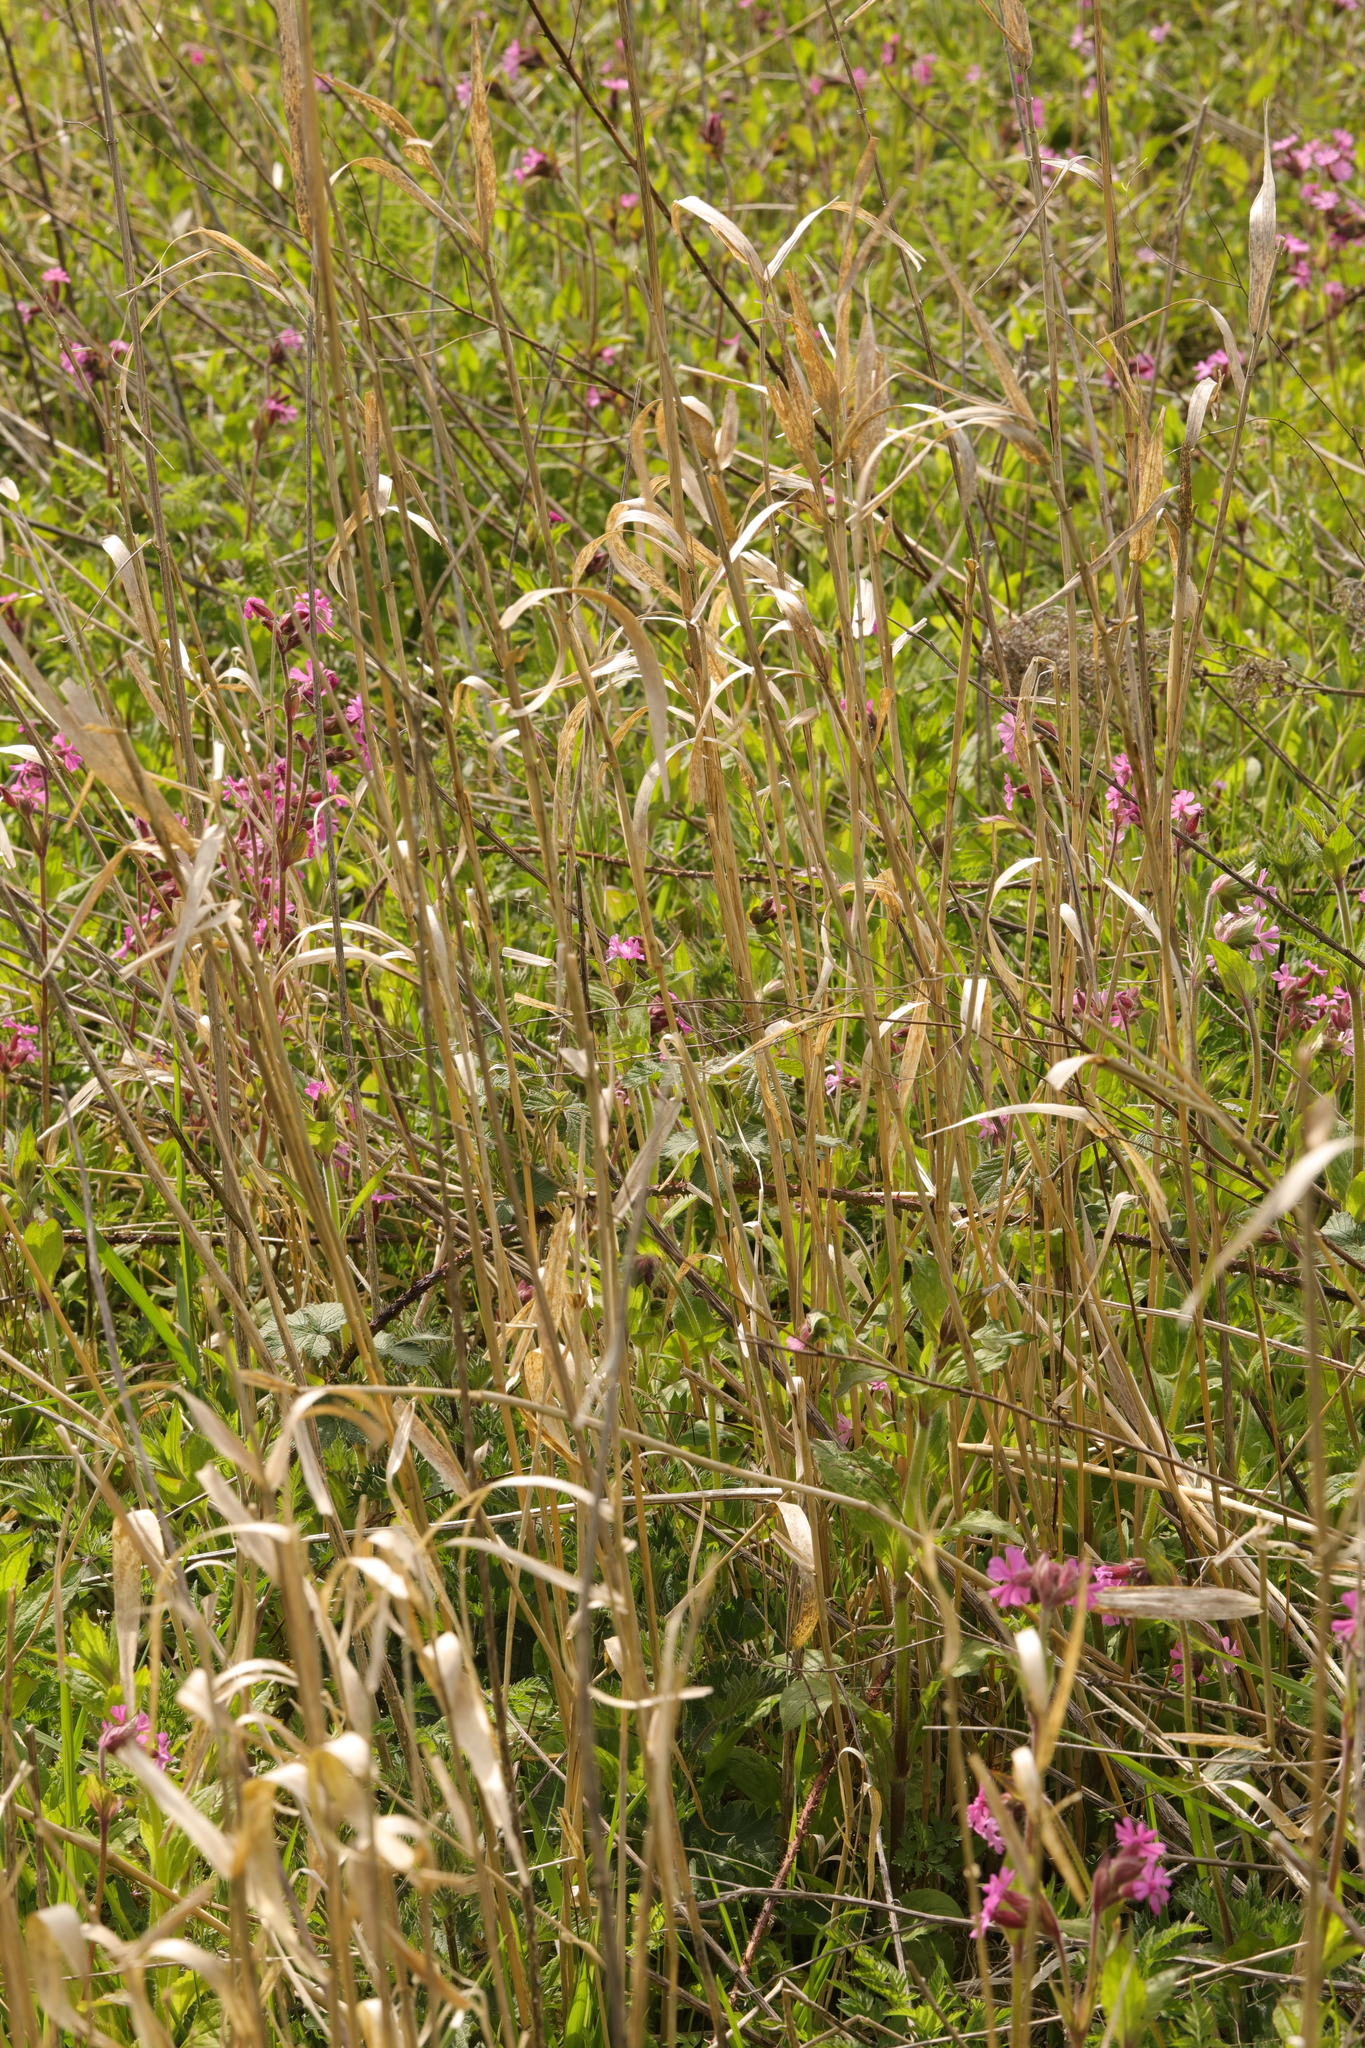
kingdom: Plantae
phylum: Tracheophyta
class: Magnoliopsida
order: Caryophyllales
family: Caryophyllaceae
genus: Silene
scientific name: Silene dioica
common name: Red campion
